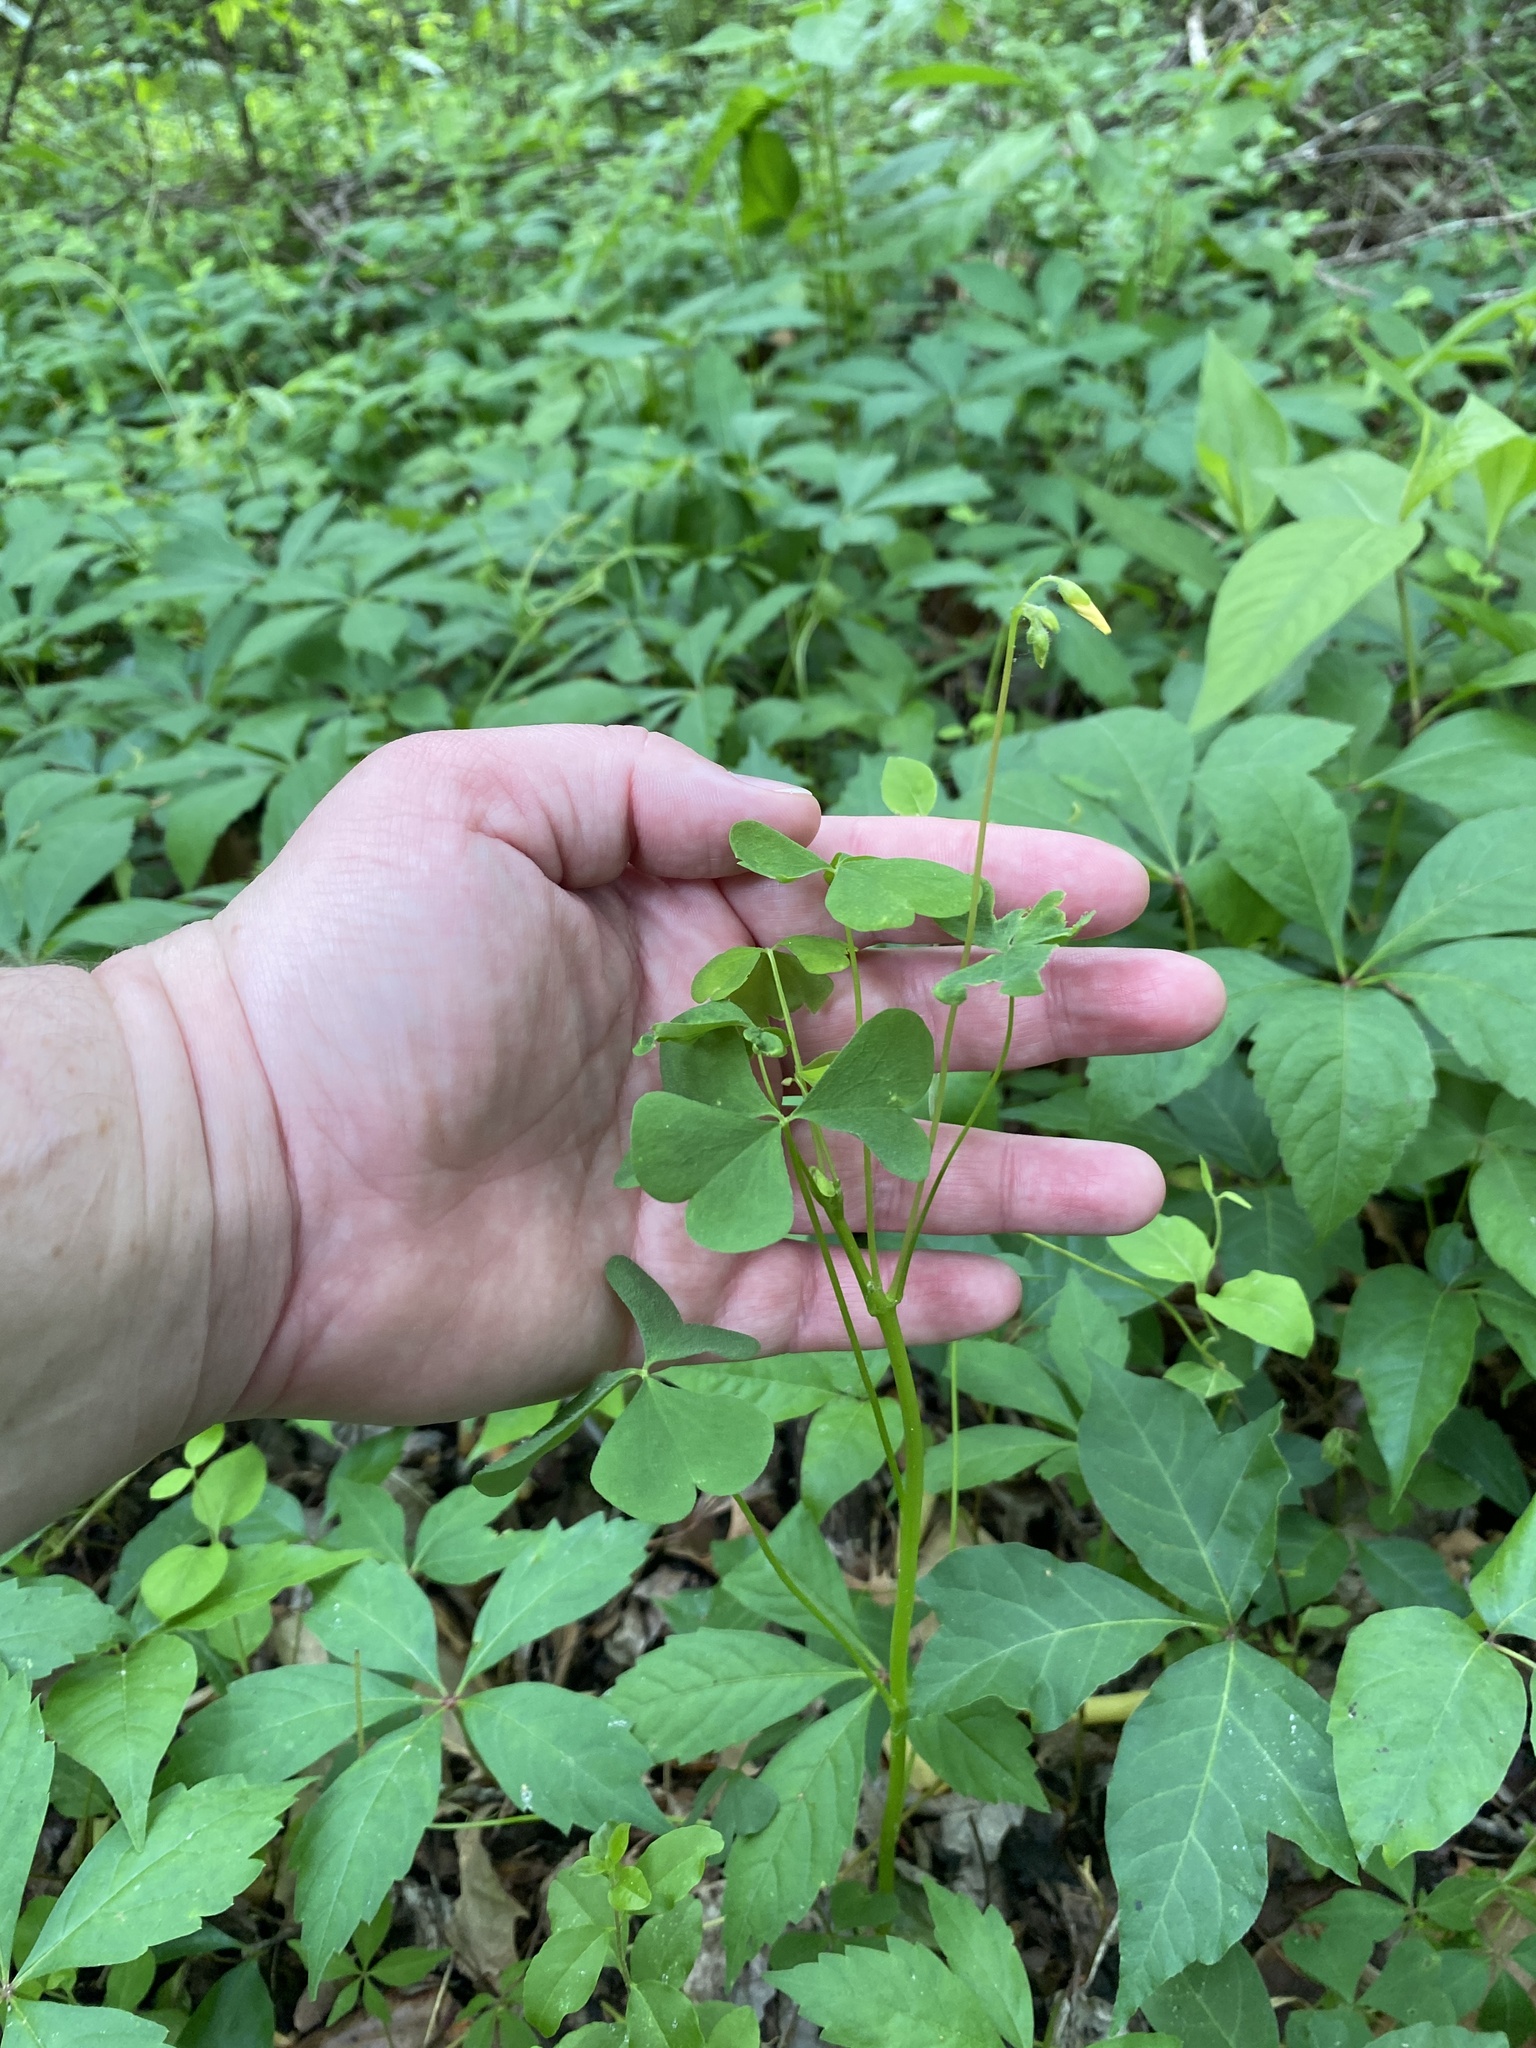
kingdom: Plantae
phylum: Tracheophyta
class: Magnoliopsida
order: Oxalidales
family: Oxalidaceae
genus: Oxalis
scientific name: Oxalis dillenii
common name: Sussex yellow-sorrel
